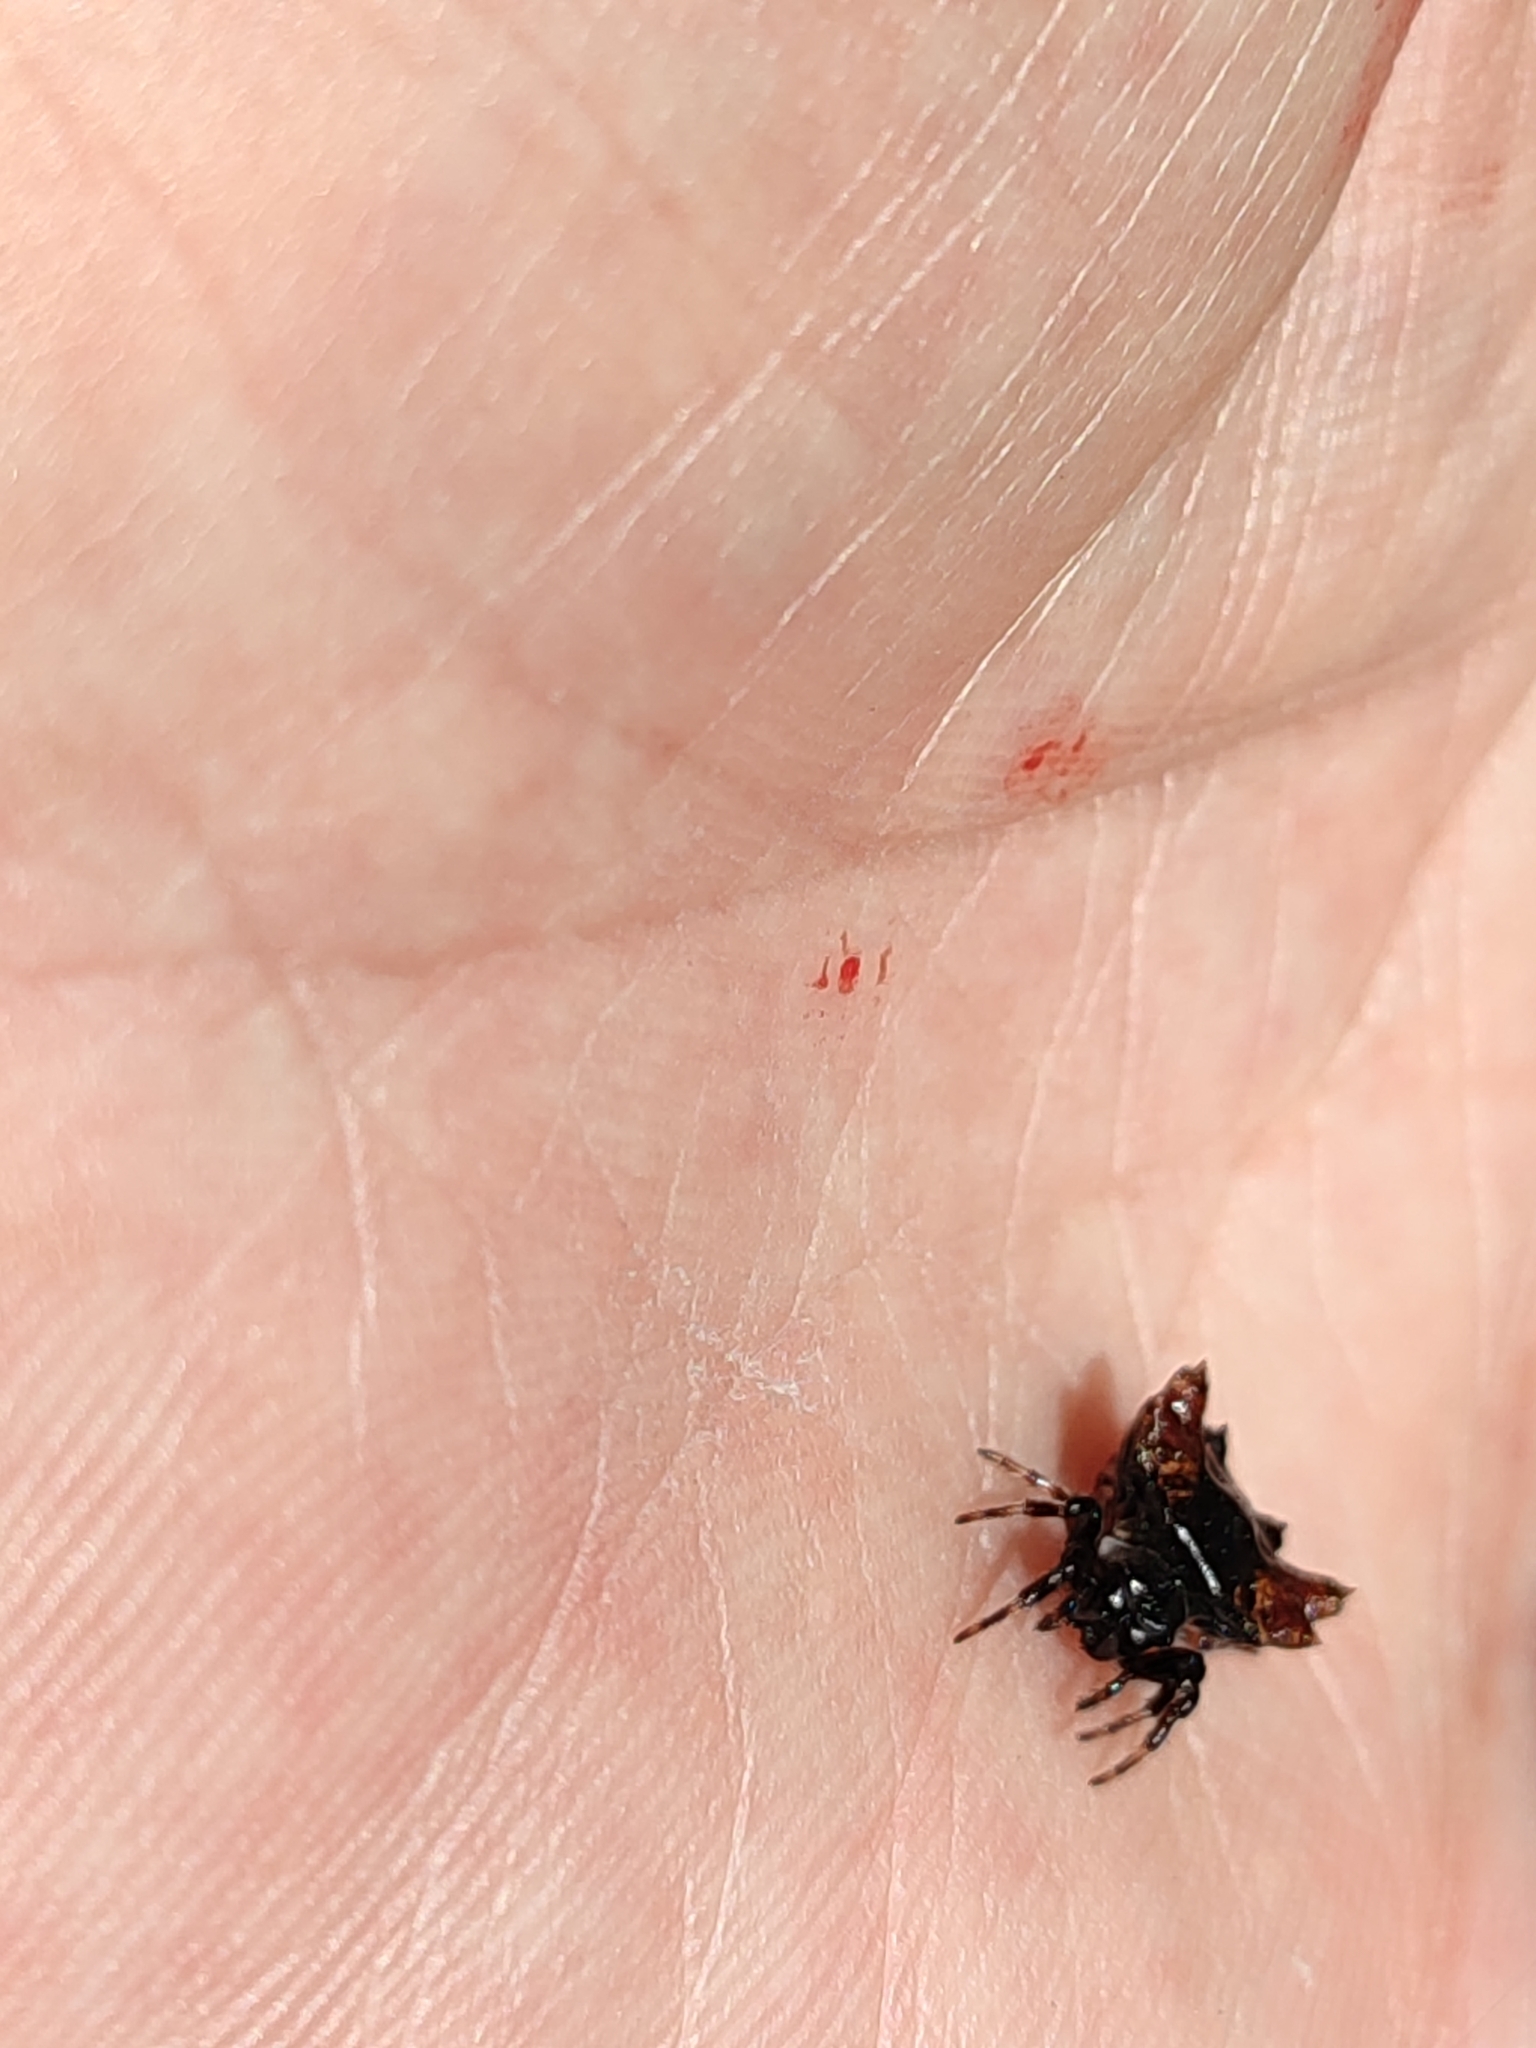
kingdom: Animalia
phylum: Arthropoda
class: Arachnida
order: Araneae
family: Araneidae
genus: Thelacantha
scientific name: Thelacantha brevispina
